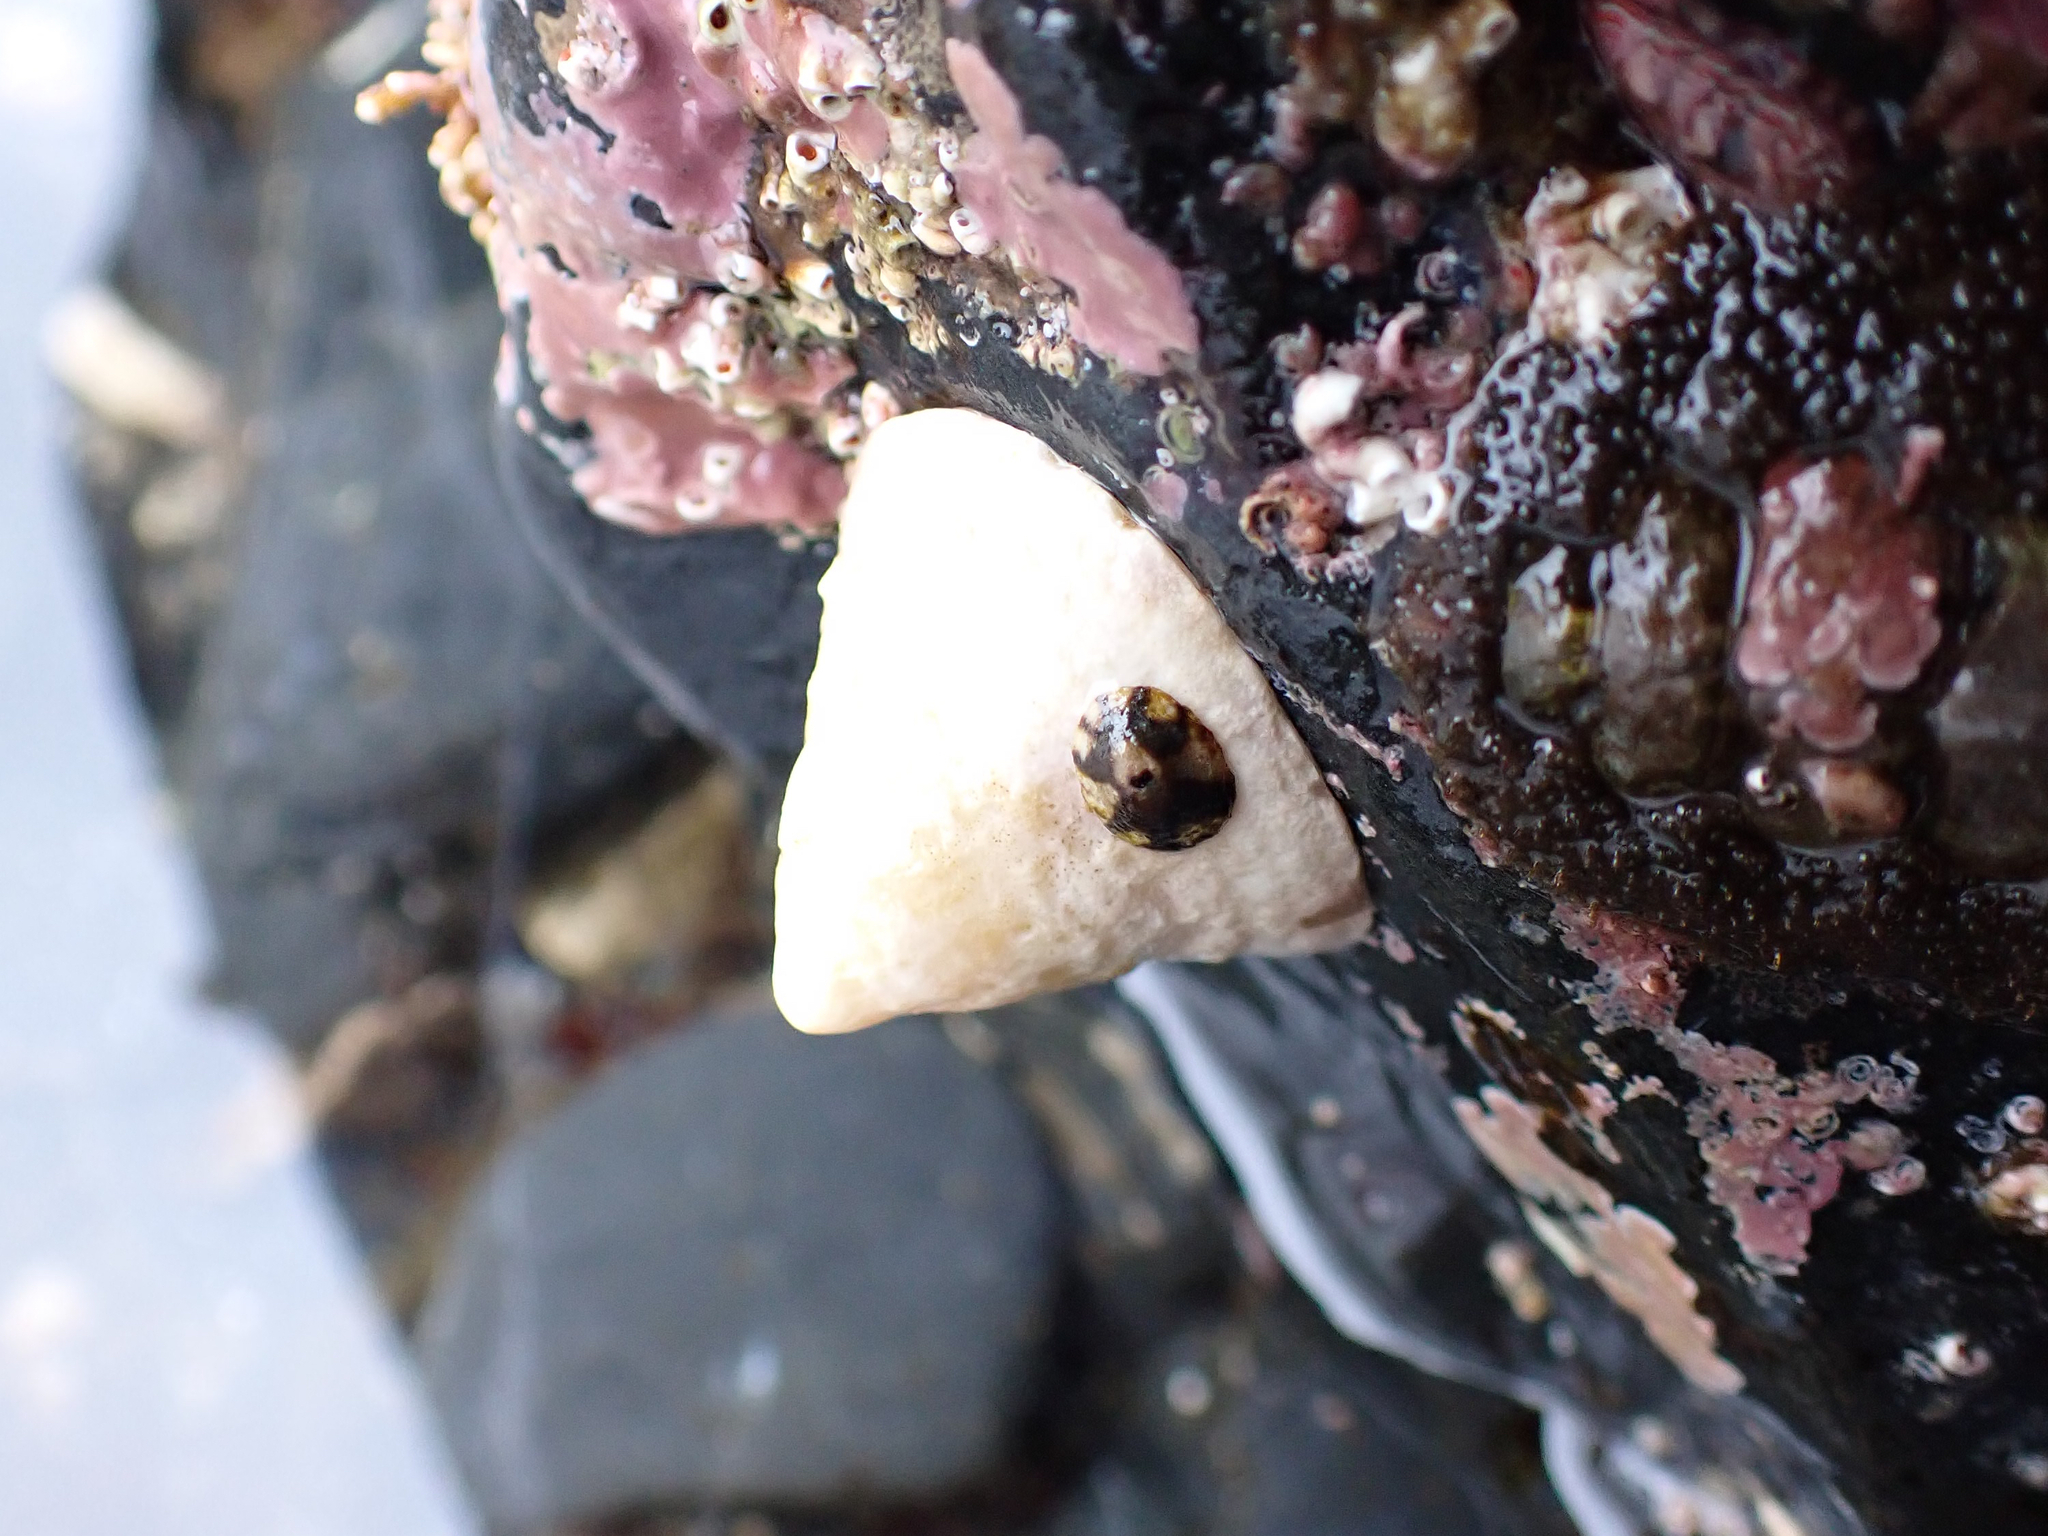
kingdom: Animalia
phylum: Mollusca
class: Gastropoda
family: Acmaeidae
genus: Acmaea
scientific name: Acmaea mitra
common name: Pacific white cap limpet
